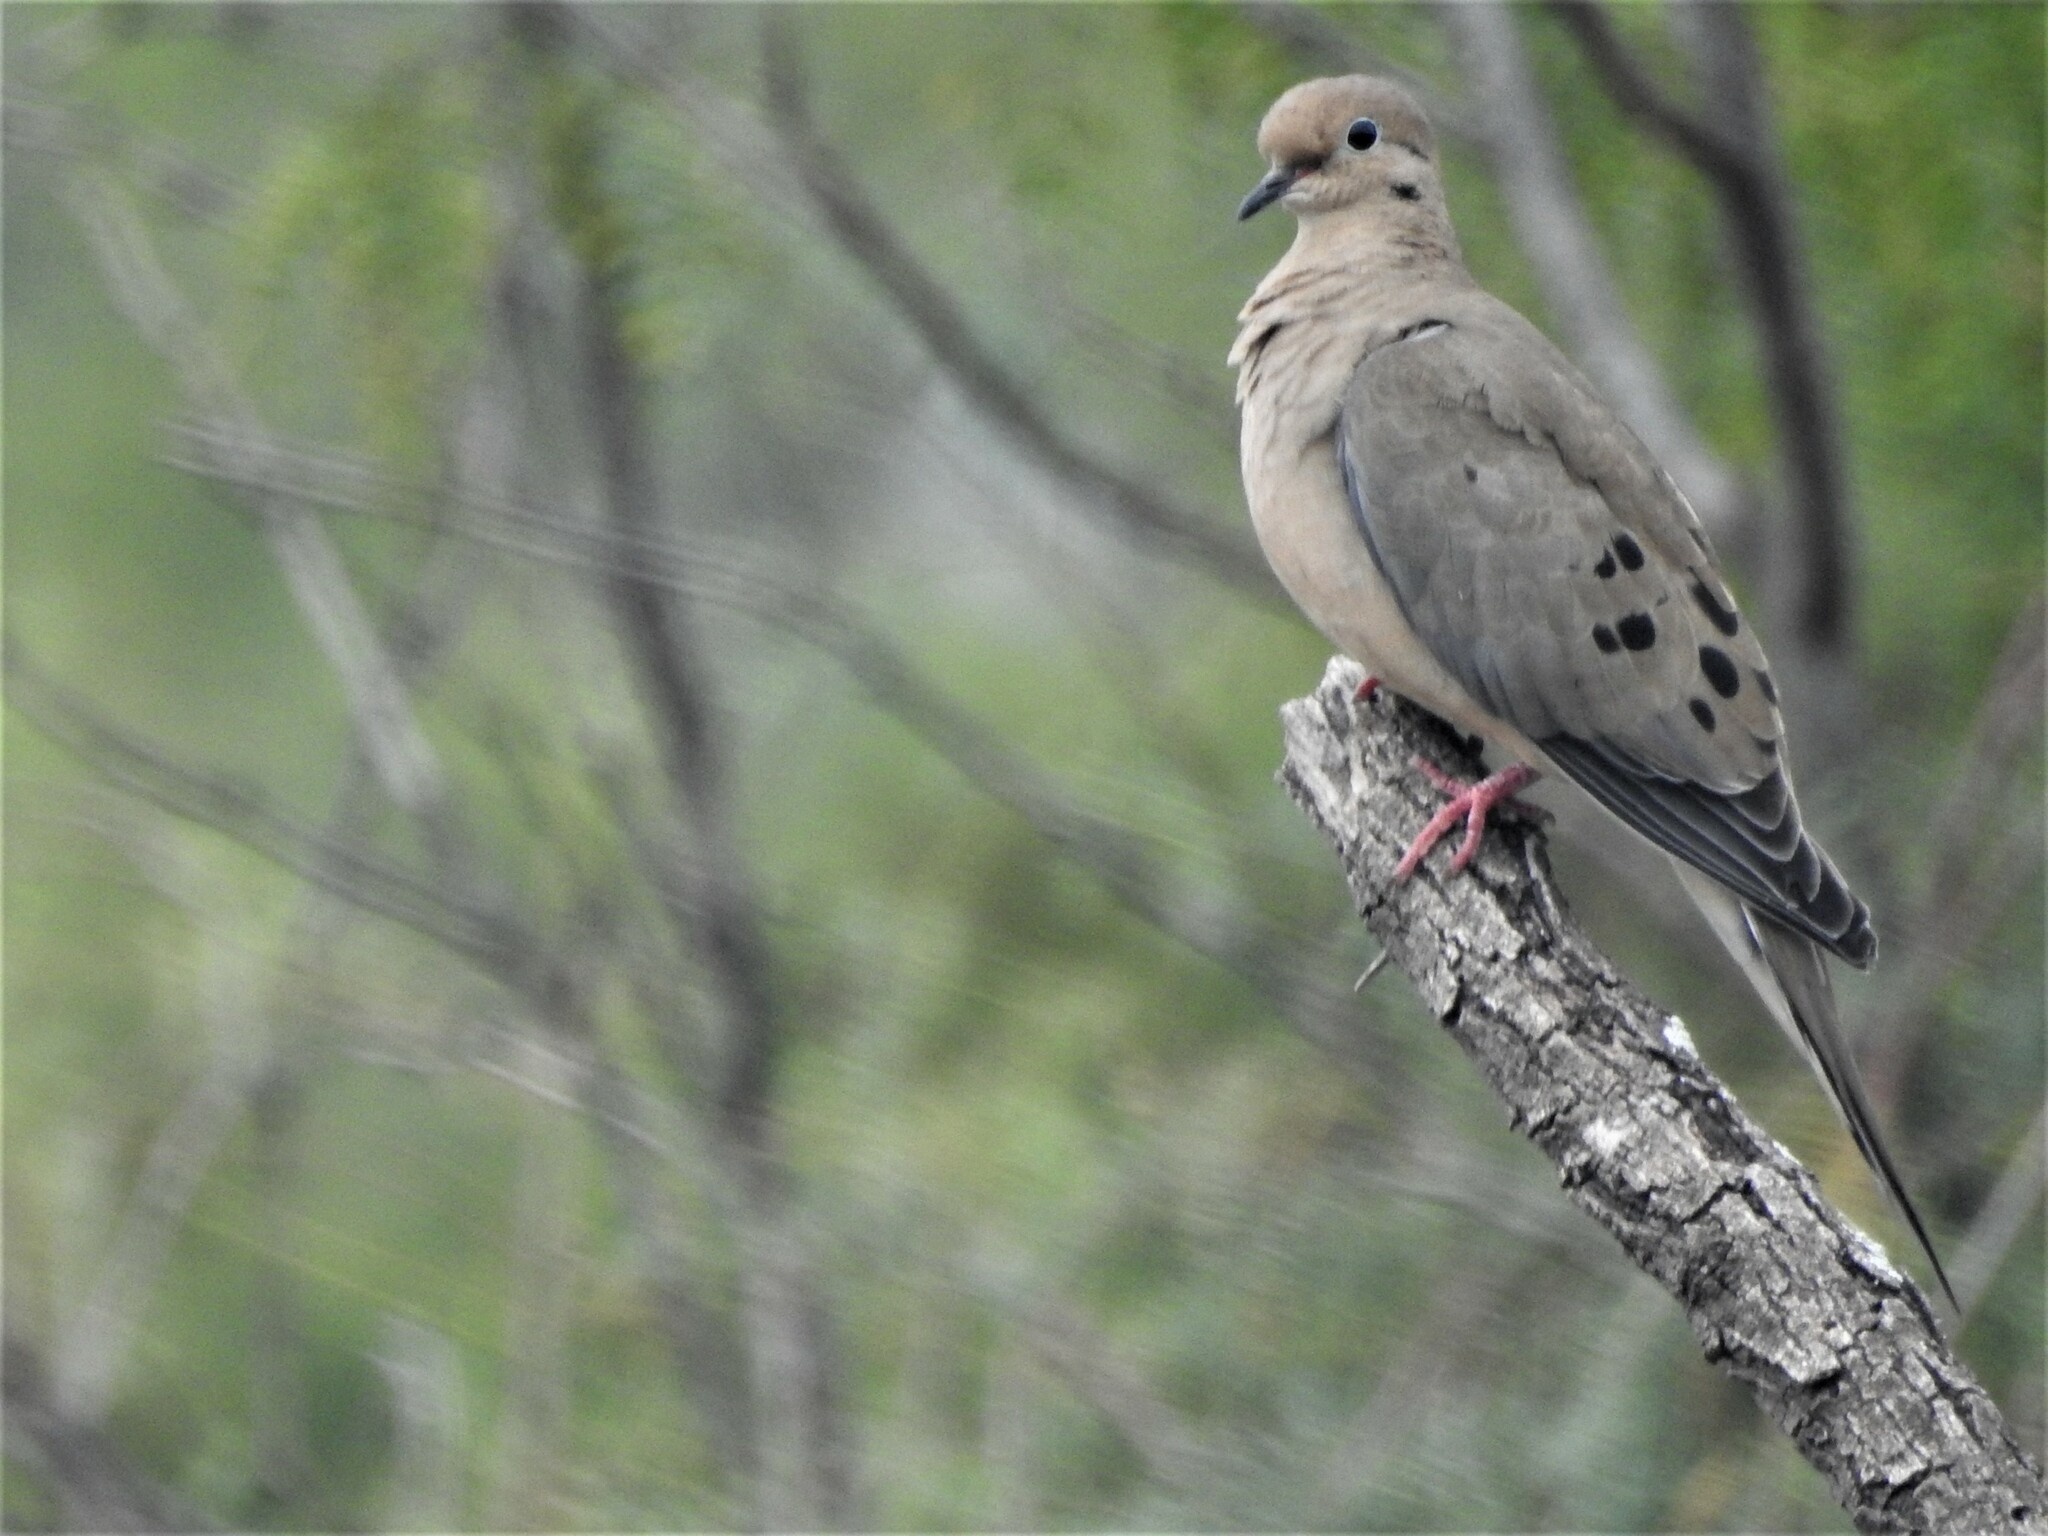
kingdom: Animalia
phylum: Chordata
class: Aves
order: Columbiformes
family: Columbidae
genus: Zenaida
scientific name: Zenaida macroura
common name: Mourning dove
